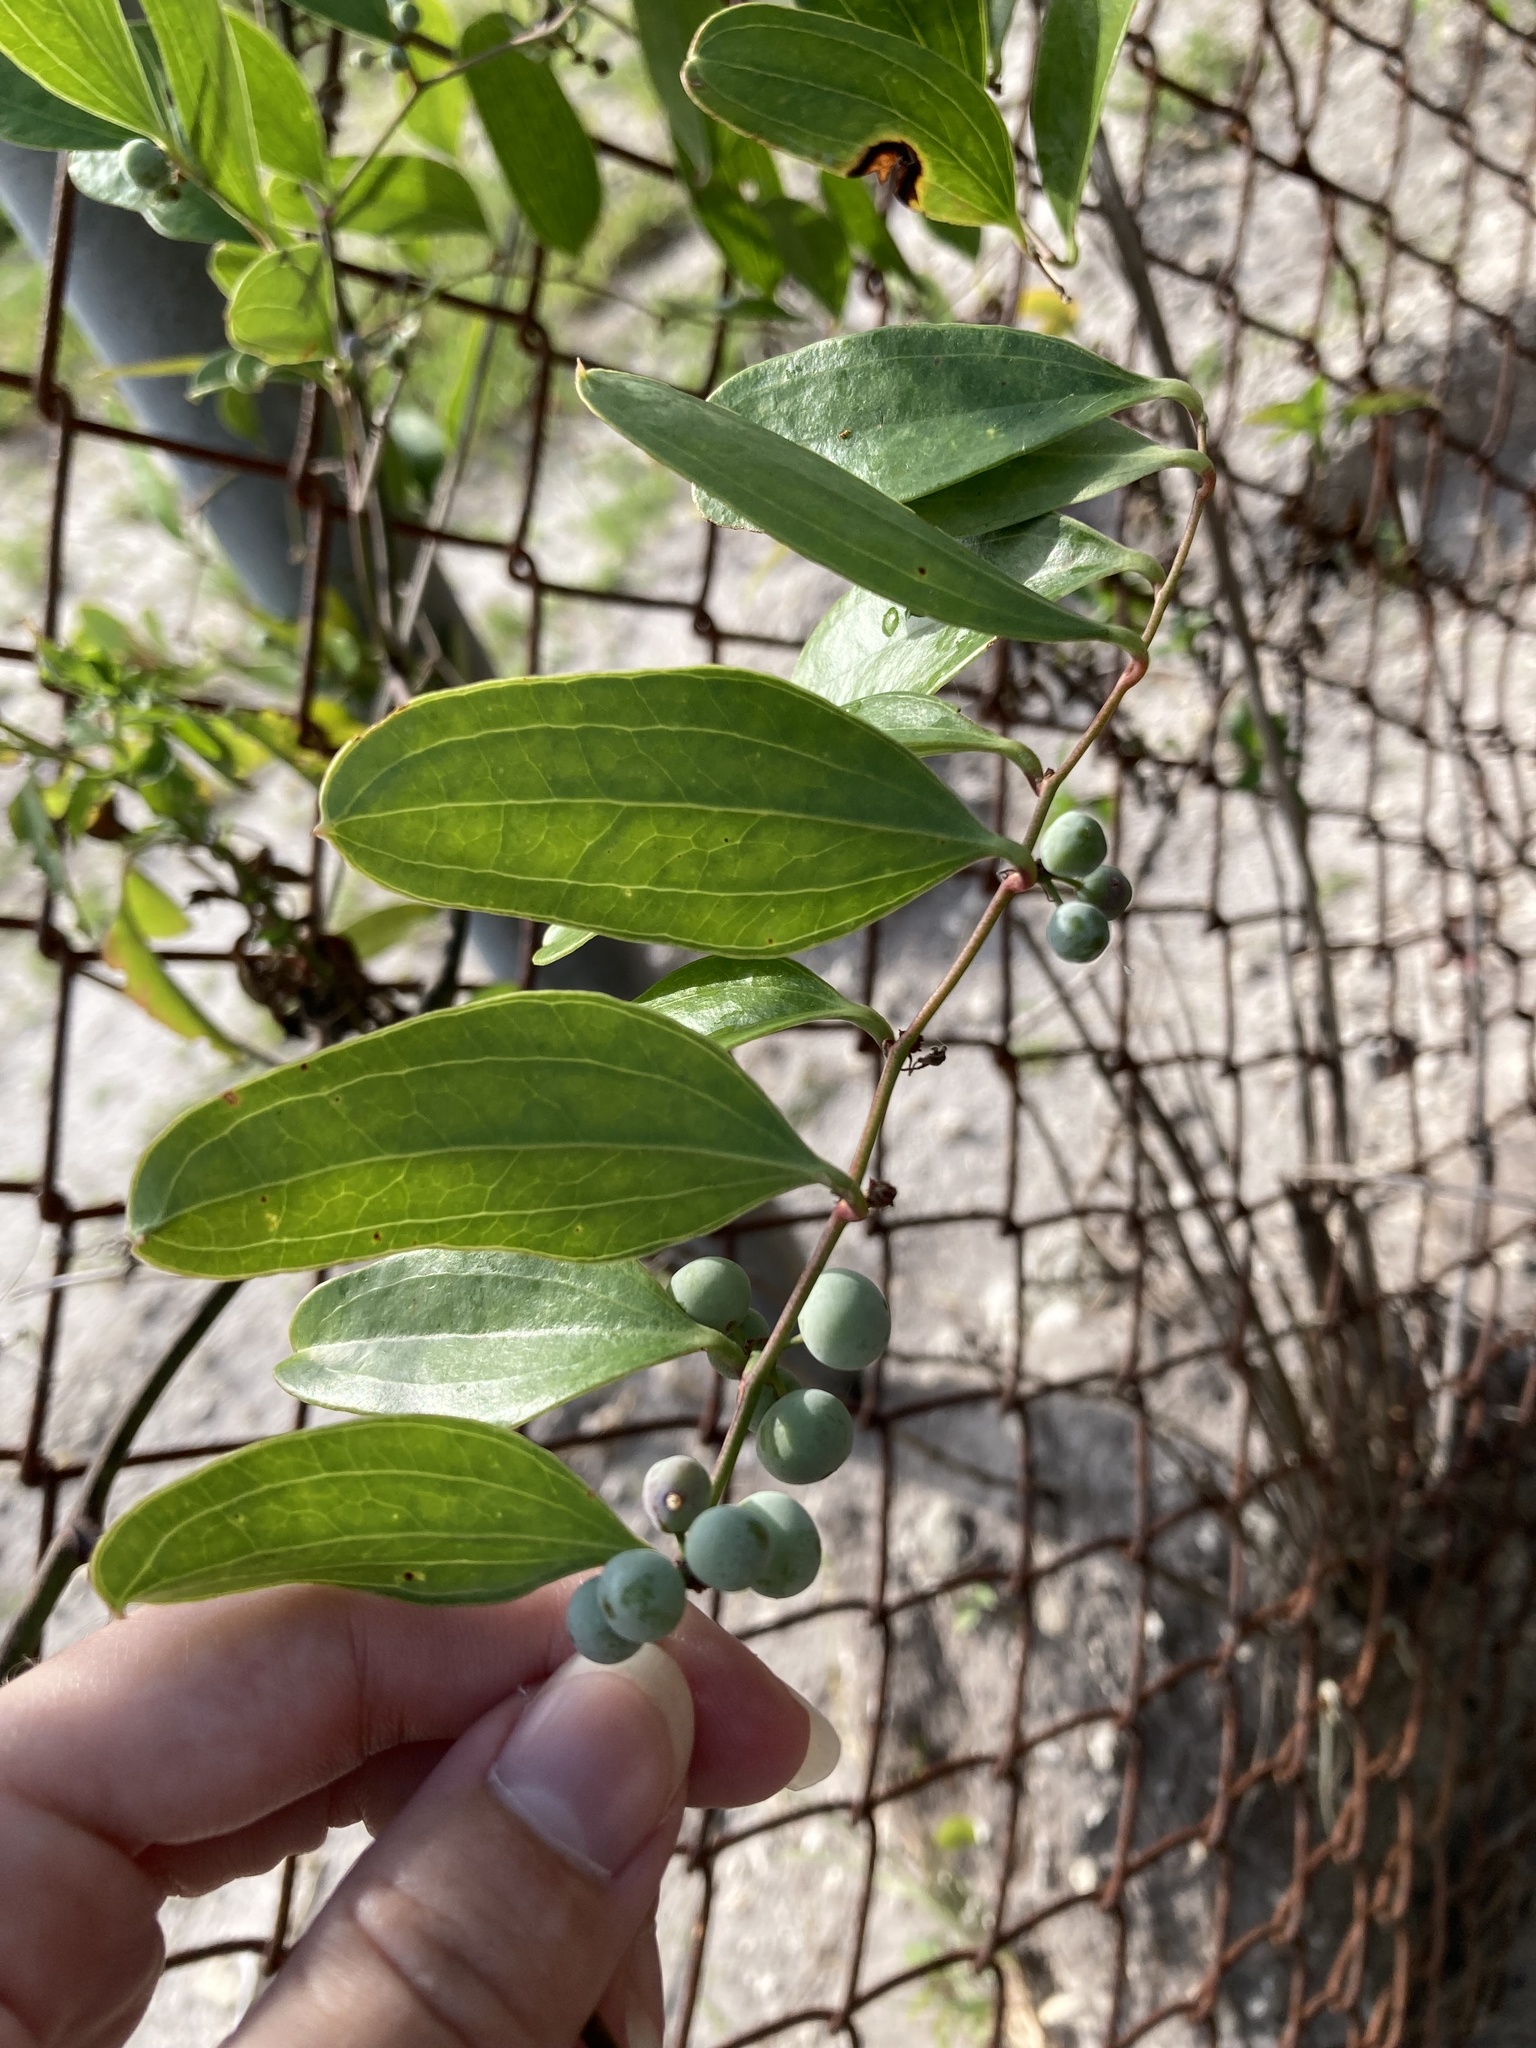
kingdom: Plantae
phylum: Tracheophyta
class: Liliopsida
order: Liliales
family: Smilacaceae
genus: Smilax
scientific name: Smilax auriculata
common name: Wild bamboo
